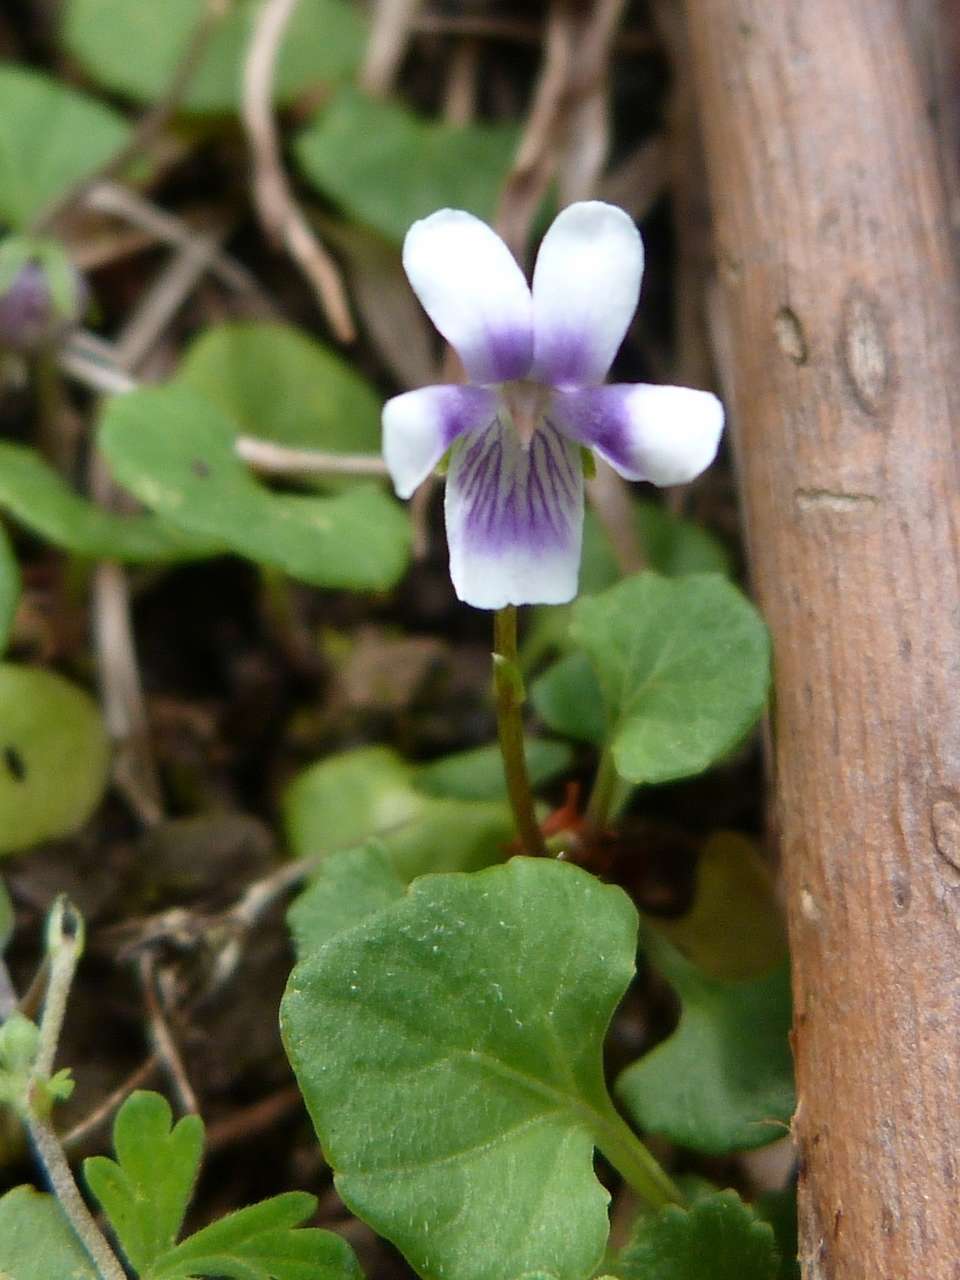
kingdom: Plantae
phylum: Tracheophyta
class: Magnoliopsida
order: Malpighiales
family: Violaceae
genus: Viola
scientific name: Viola hederacea
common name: Australian violet
